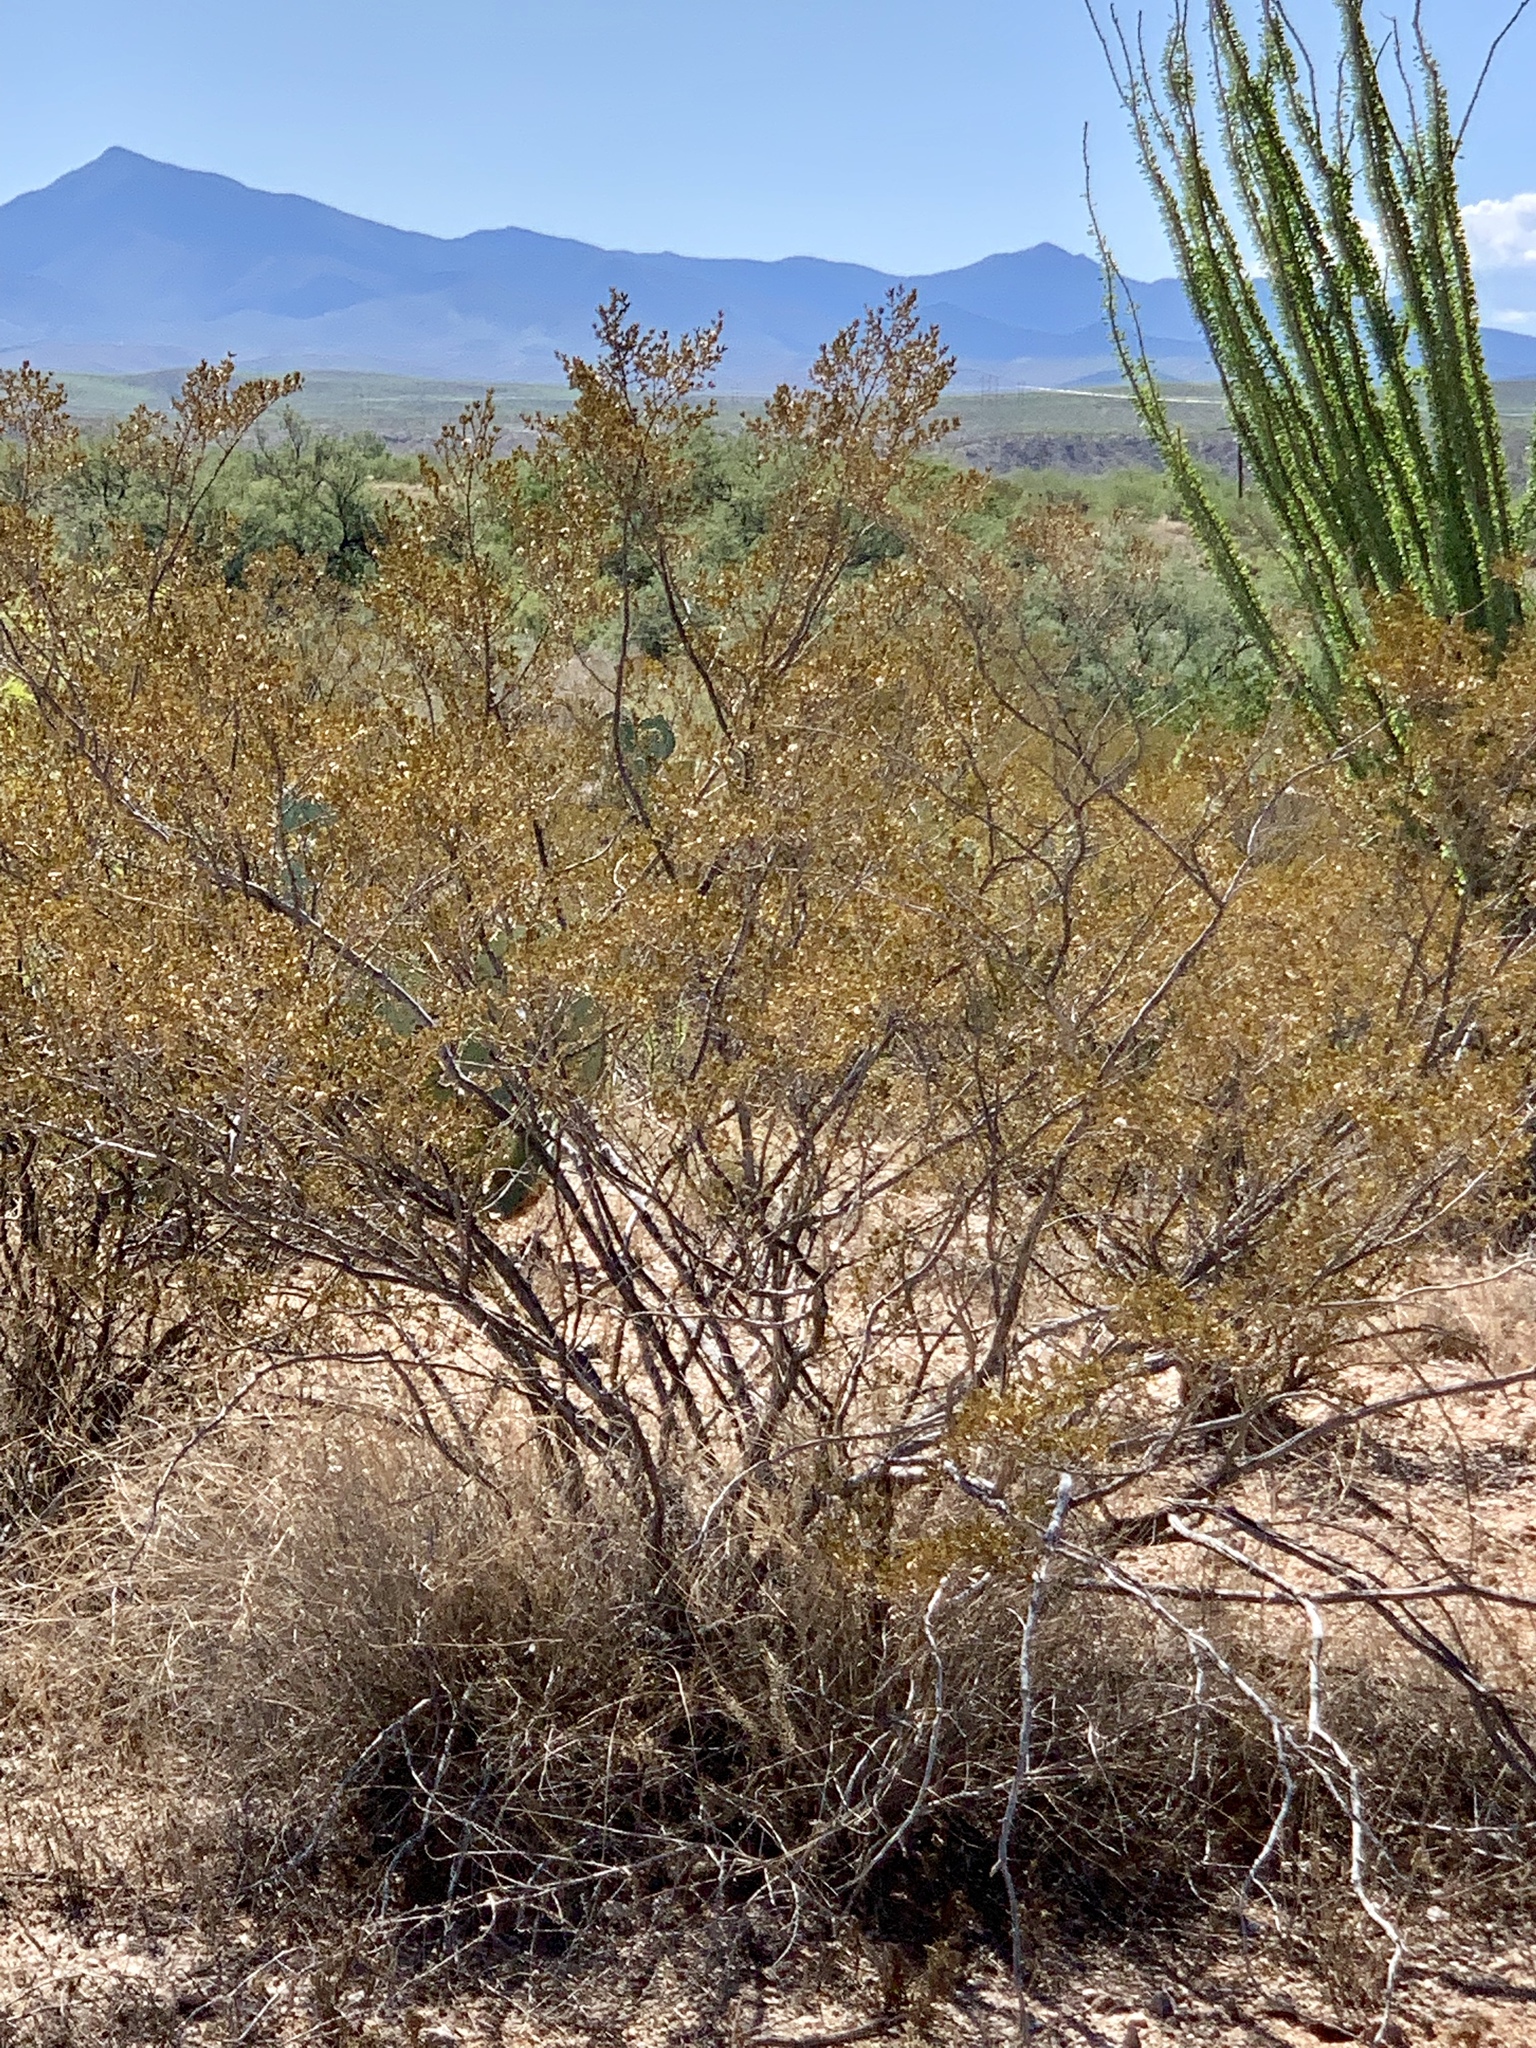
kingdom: Plantae
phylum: Tracheophyta
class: Magnoliopsida
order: Zygophyllales
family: Zygophyllaceae
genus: Larrea
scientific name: Larrea tridentata
